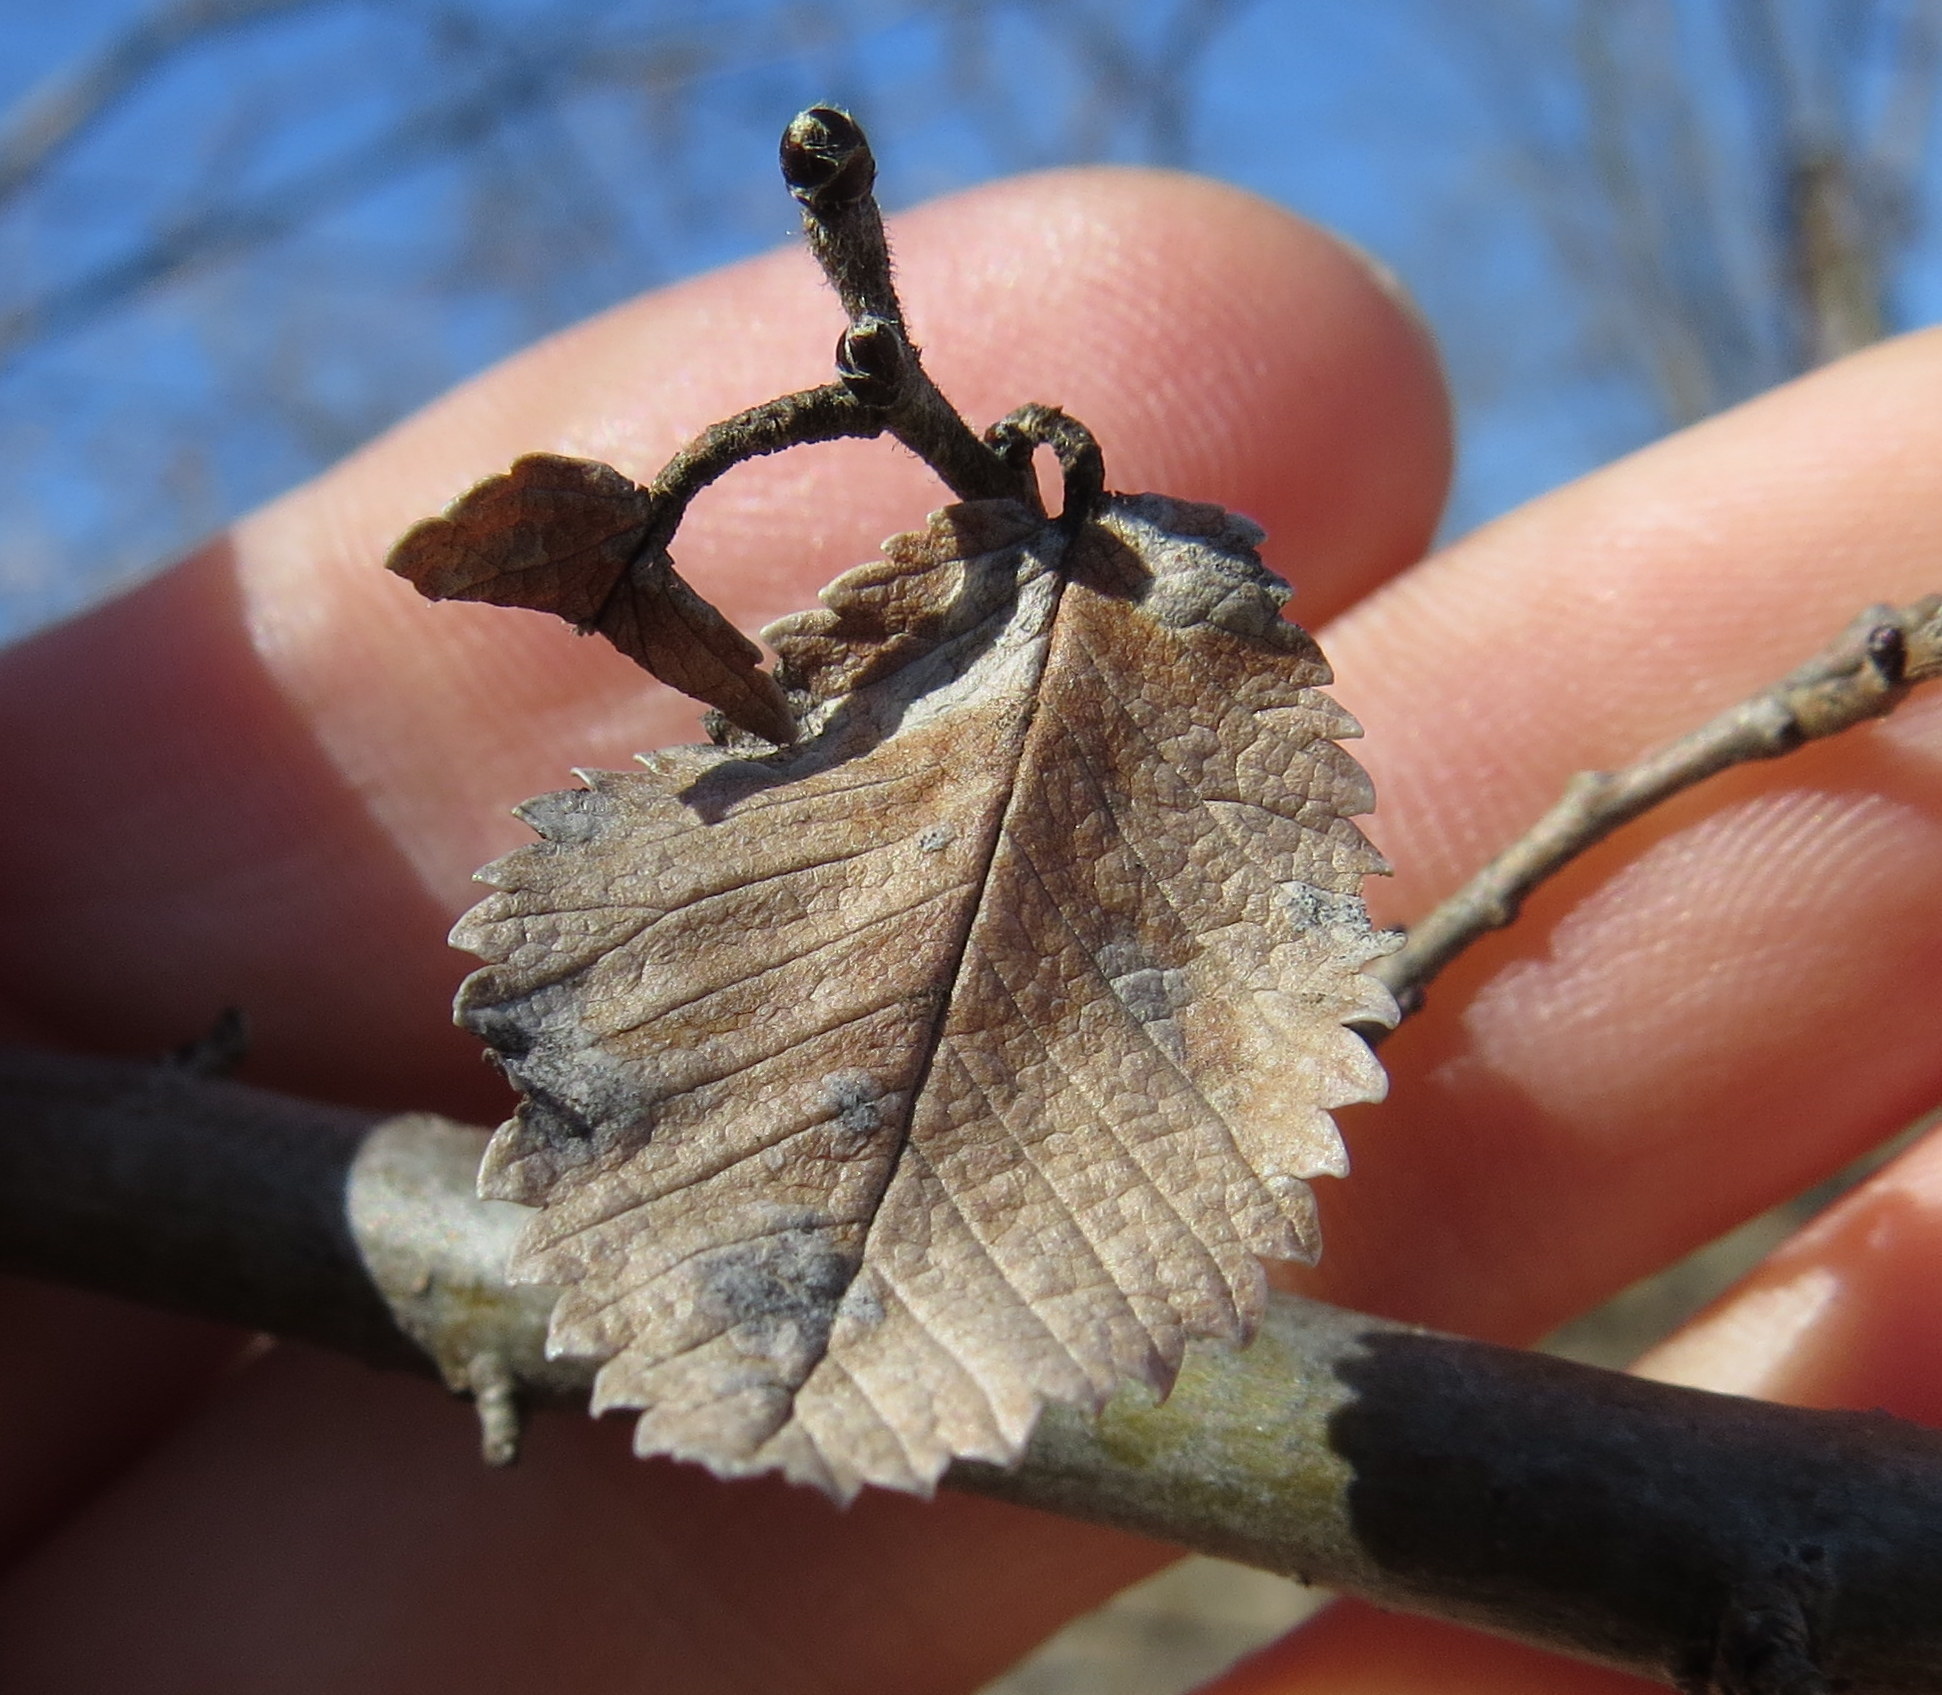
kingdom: Plantae
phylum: Tracheophyta
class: Magnoliopsida
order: Rosales
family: Ulmaceae
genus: Ulmus
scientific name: Ulmus pumila
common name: Siberian elm
